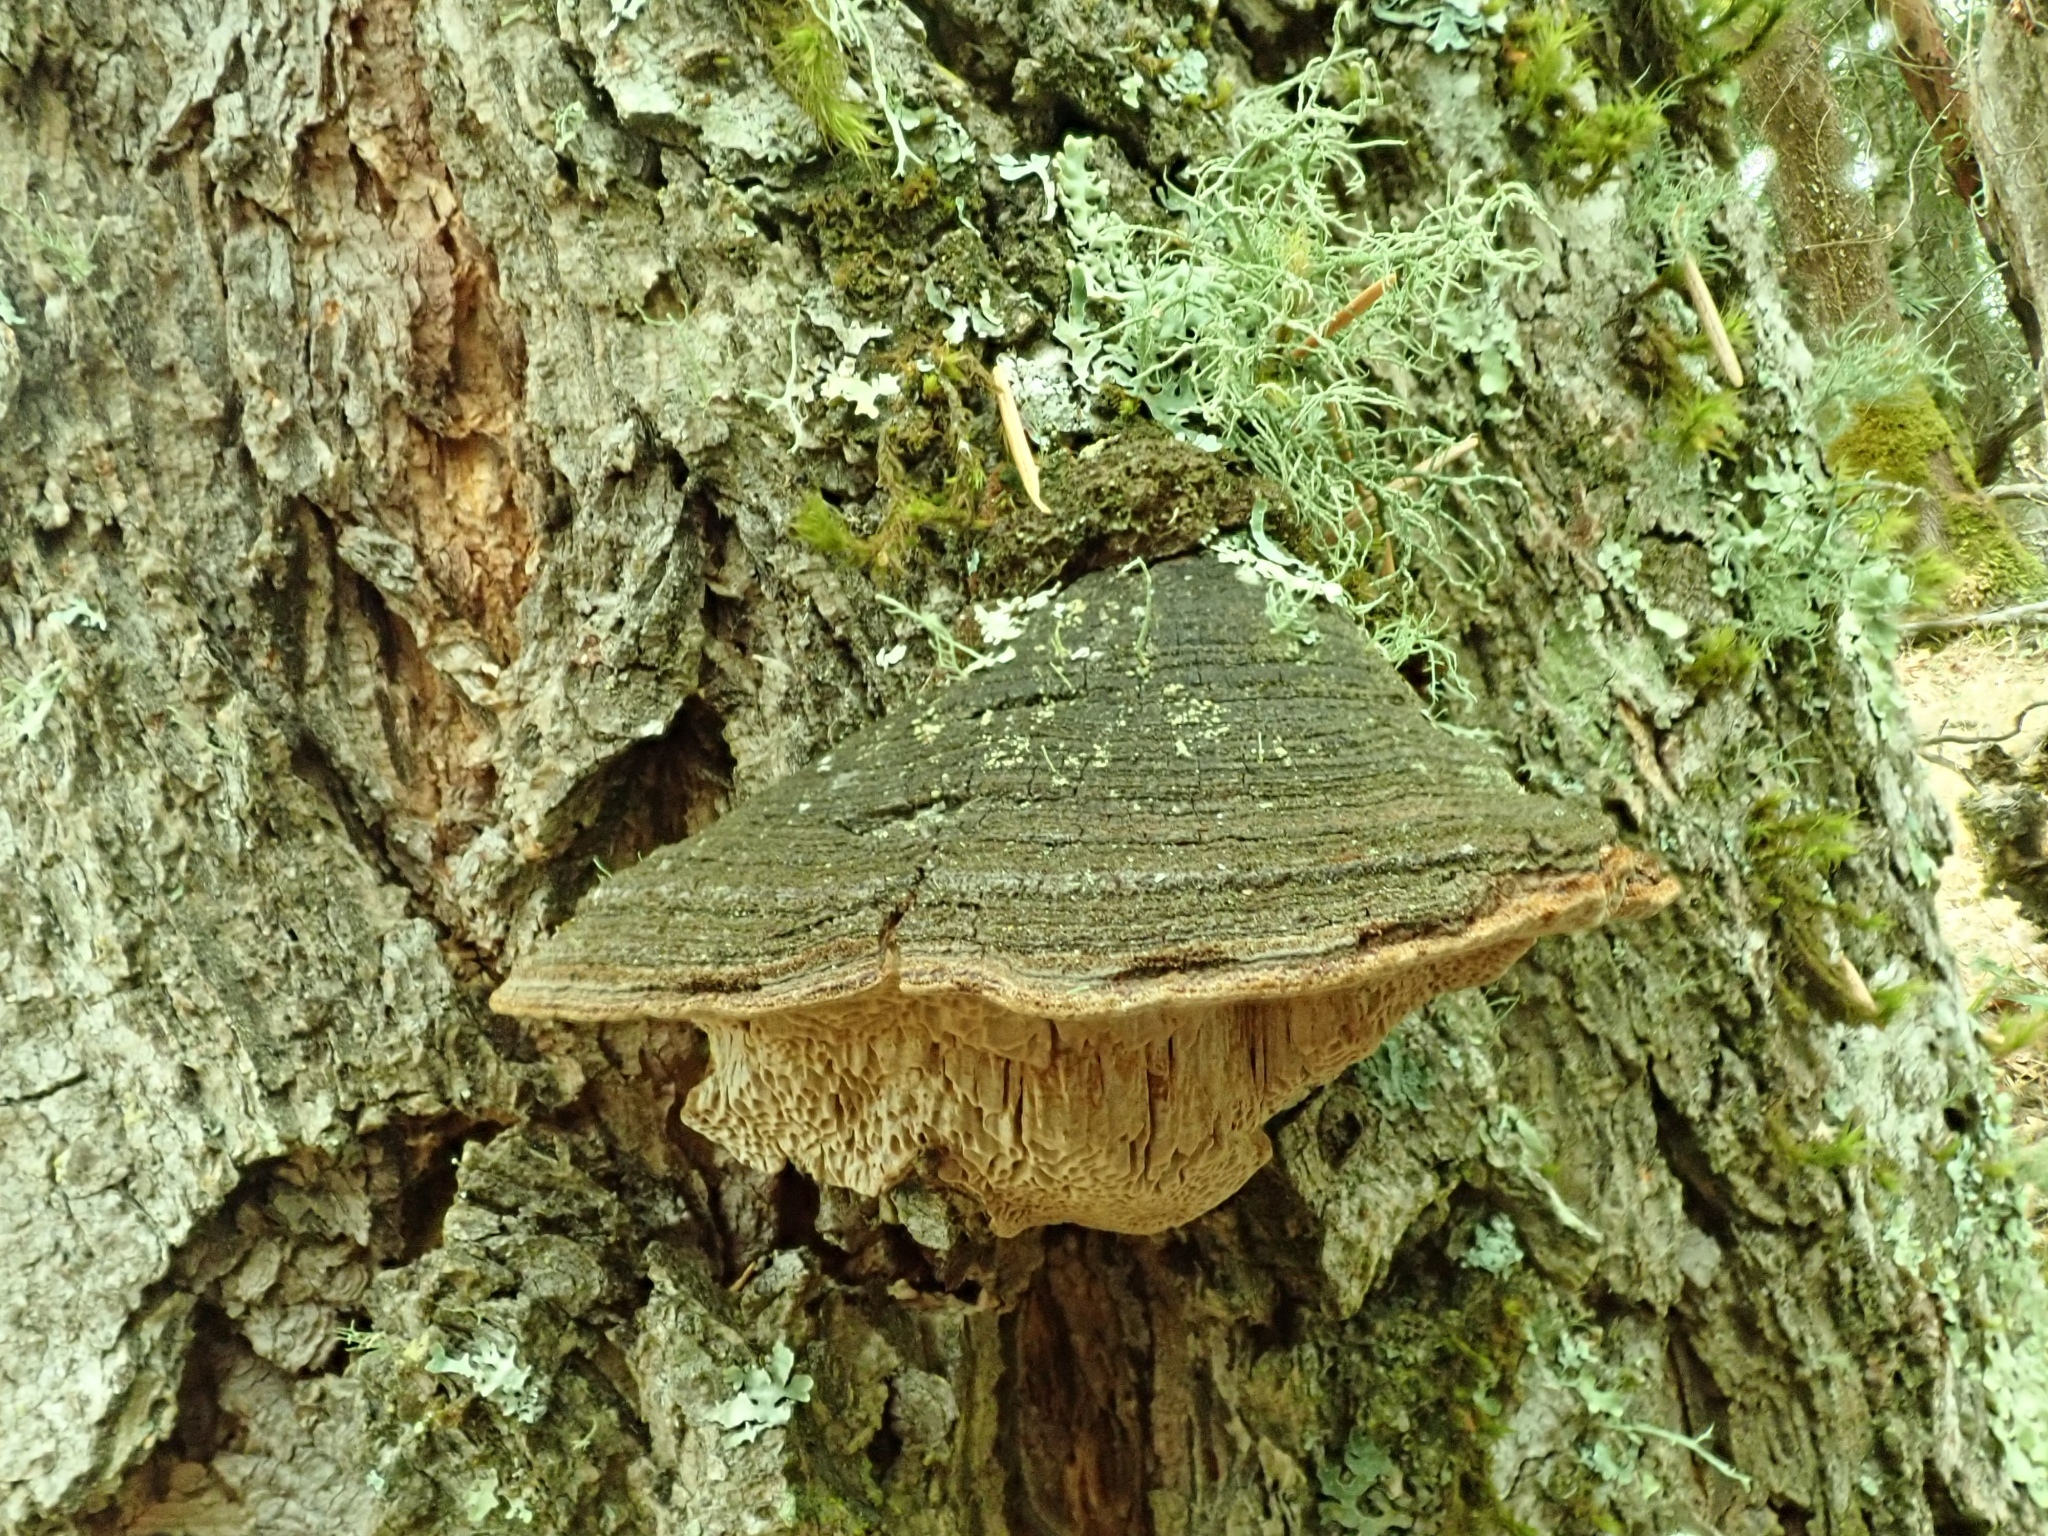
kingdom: Fungi
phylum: Basidiomycota
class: Agaricomycetes
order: Hymenochaetales
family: Hymenochaetaceae
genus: Porodaedalea
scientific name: Porodaedalea pini
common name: Pine bracket
